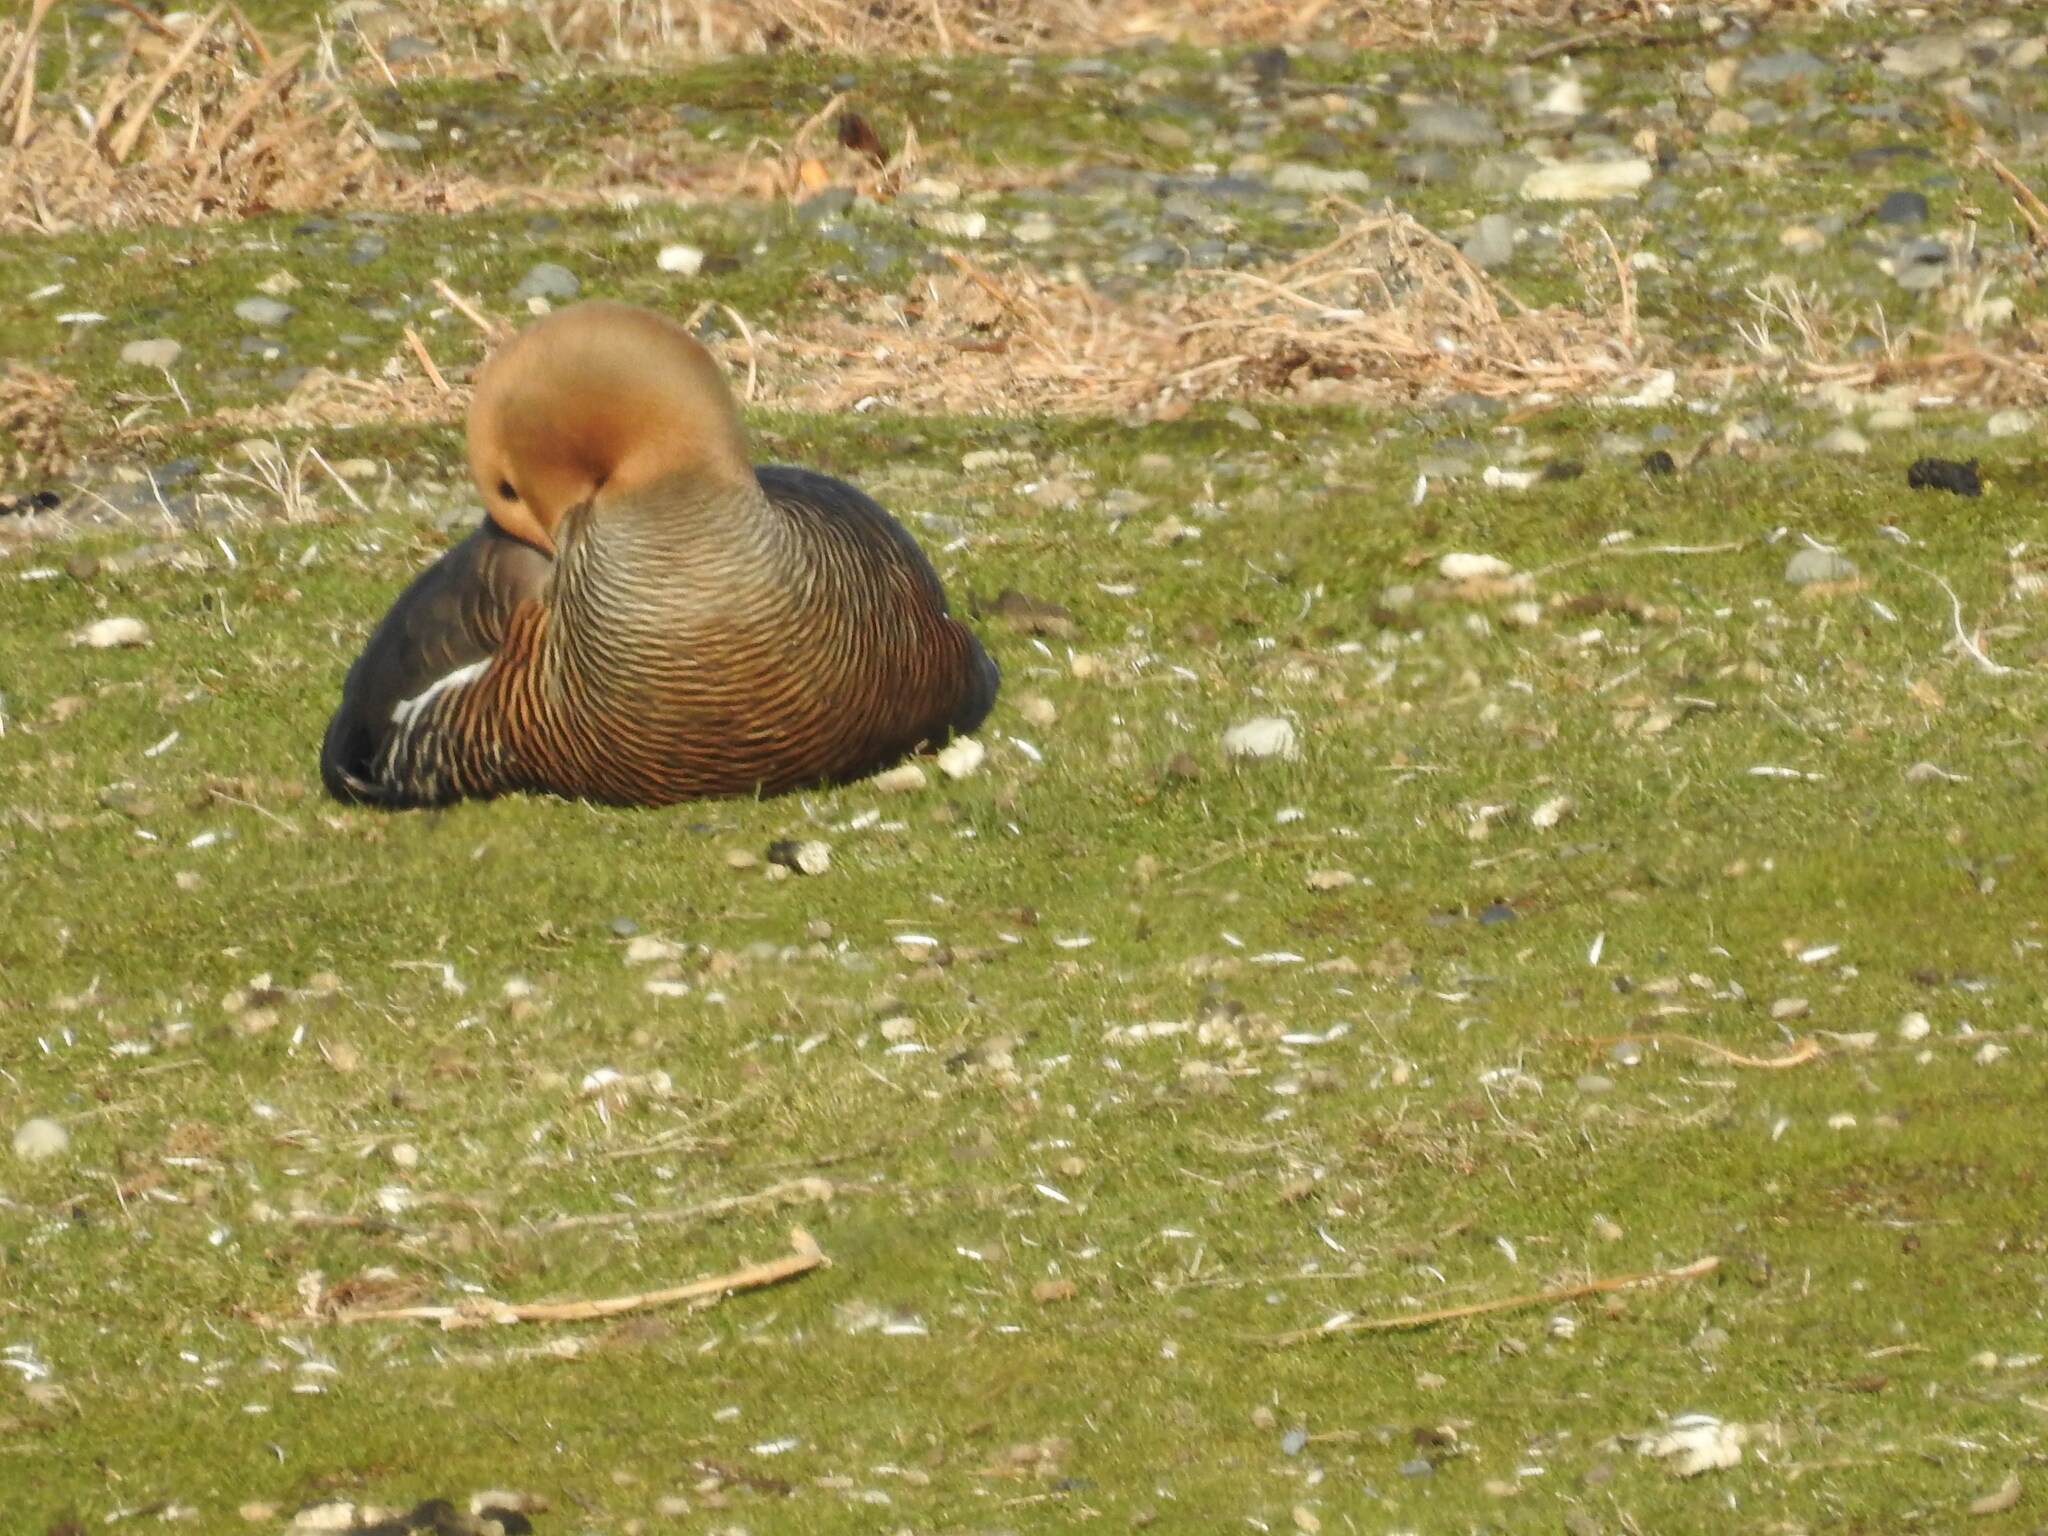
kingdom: Animalia
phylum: Chordata
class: Aves
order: Anseriformes
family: Anatidae
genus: Chloephaga
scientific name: Chloephaga picta
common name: Upland goose
